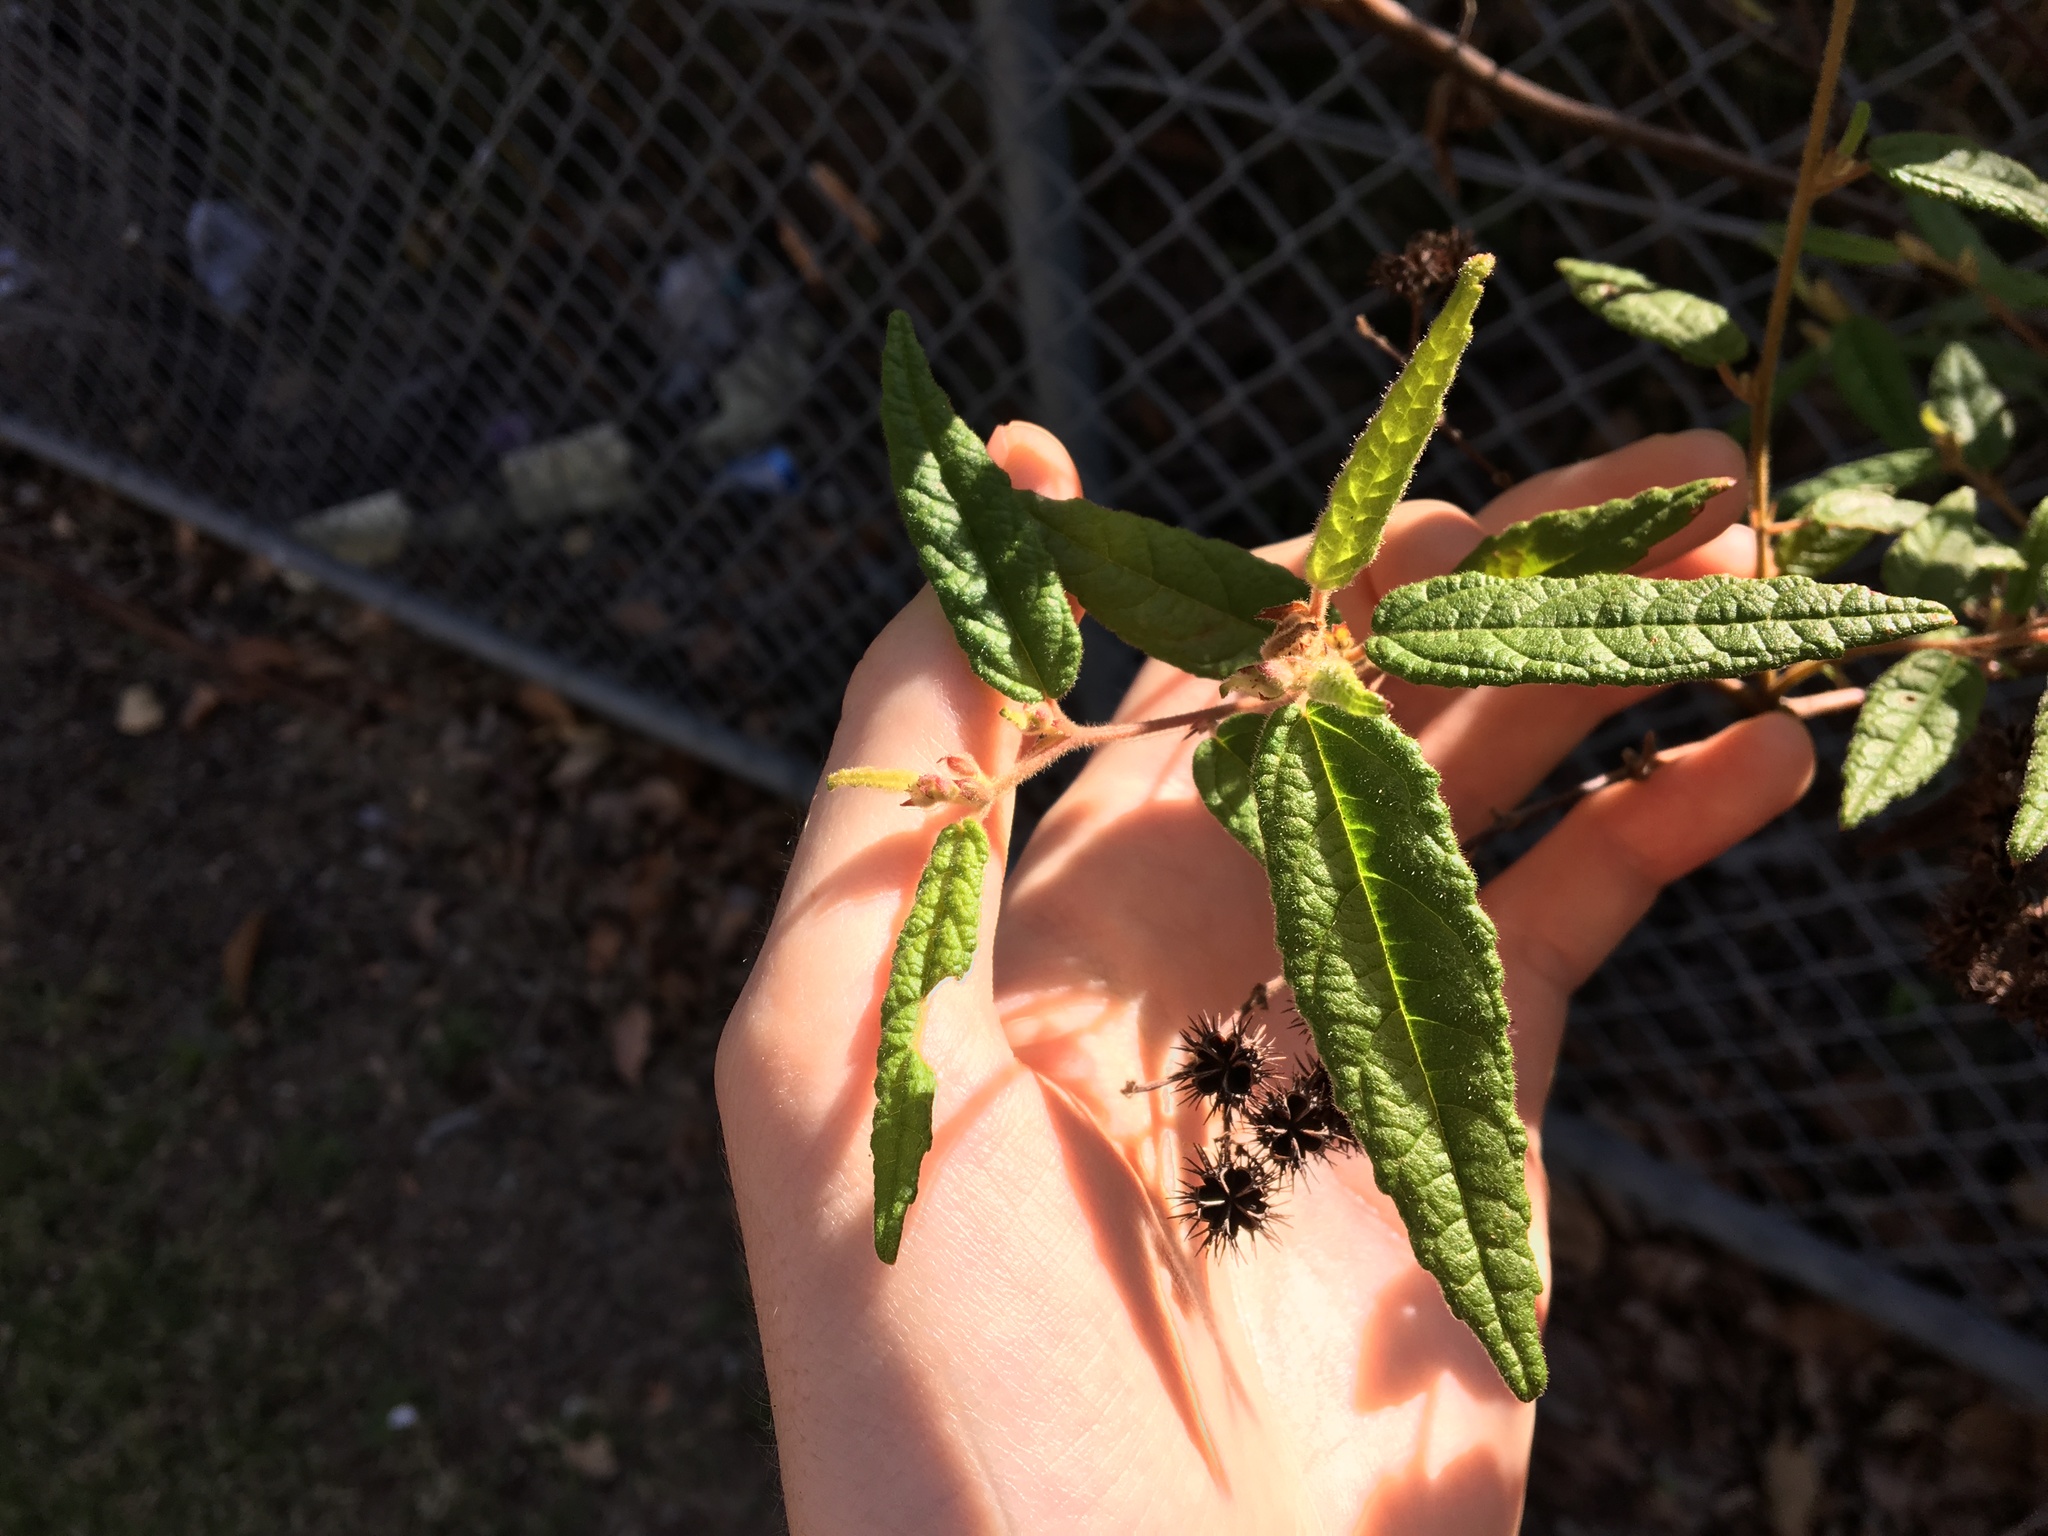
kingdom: Plantae
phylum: Tracheophyta
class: Magnoliopsida
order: Malvales
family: Malvaceae
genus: Commersonia
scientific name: Commersonia dasyphylla
